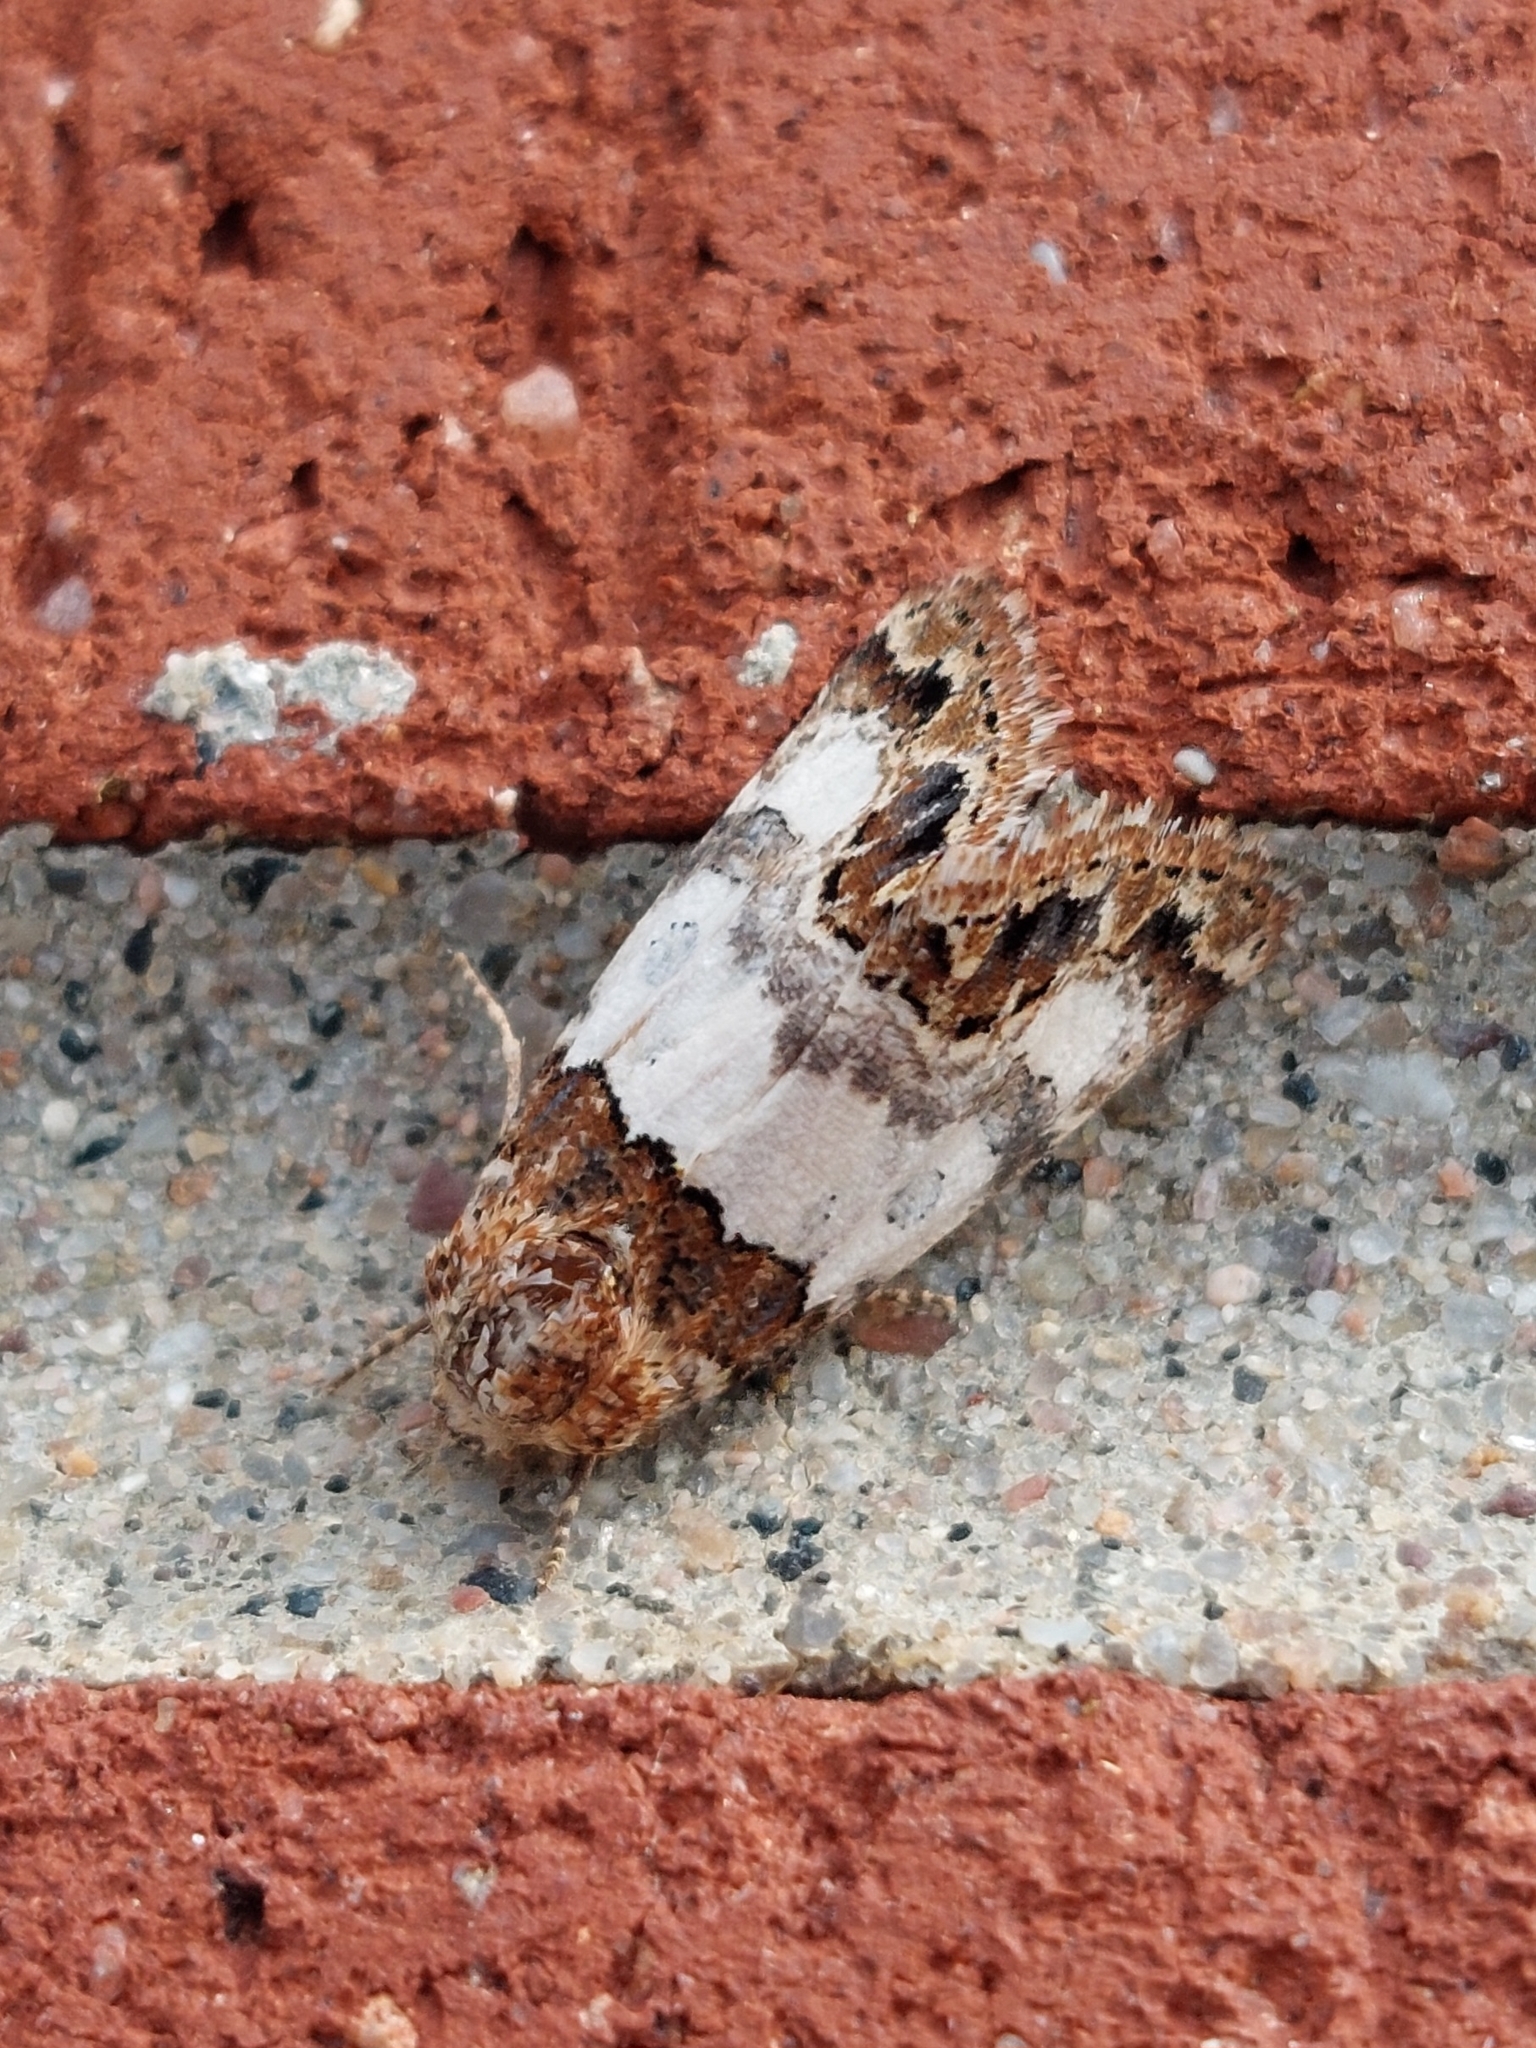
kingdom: Animalia
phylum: Arthropoda
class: Insecta
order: Lepidoptera
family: Noctuidae
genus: Schinia
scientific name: Schinia albafascia
